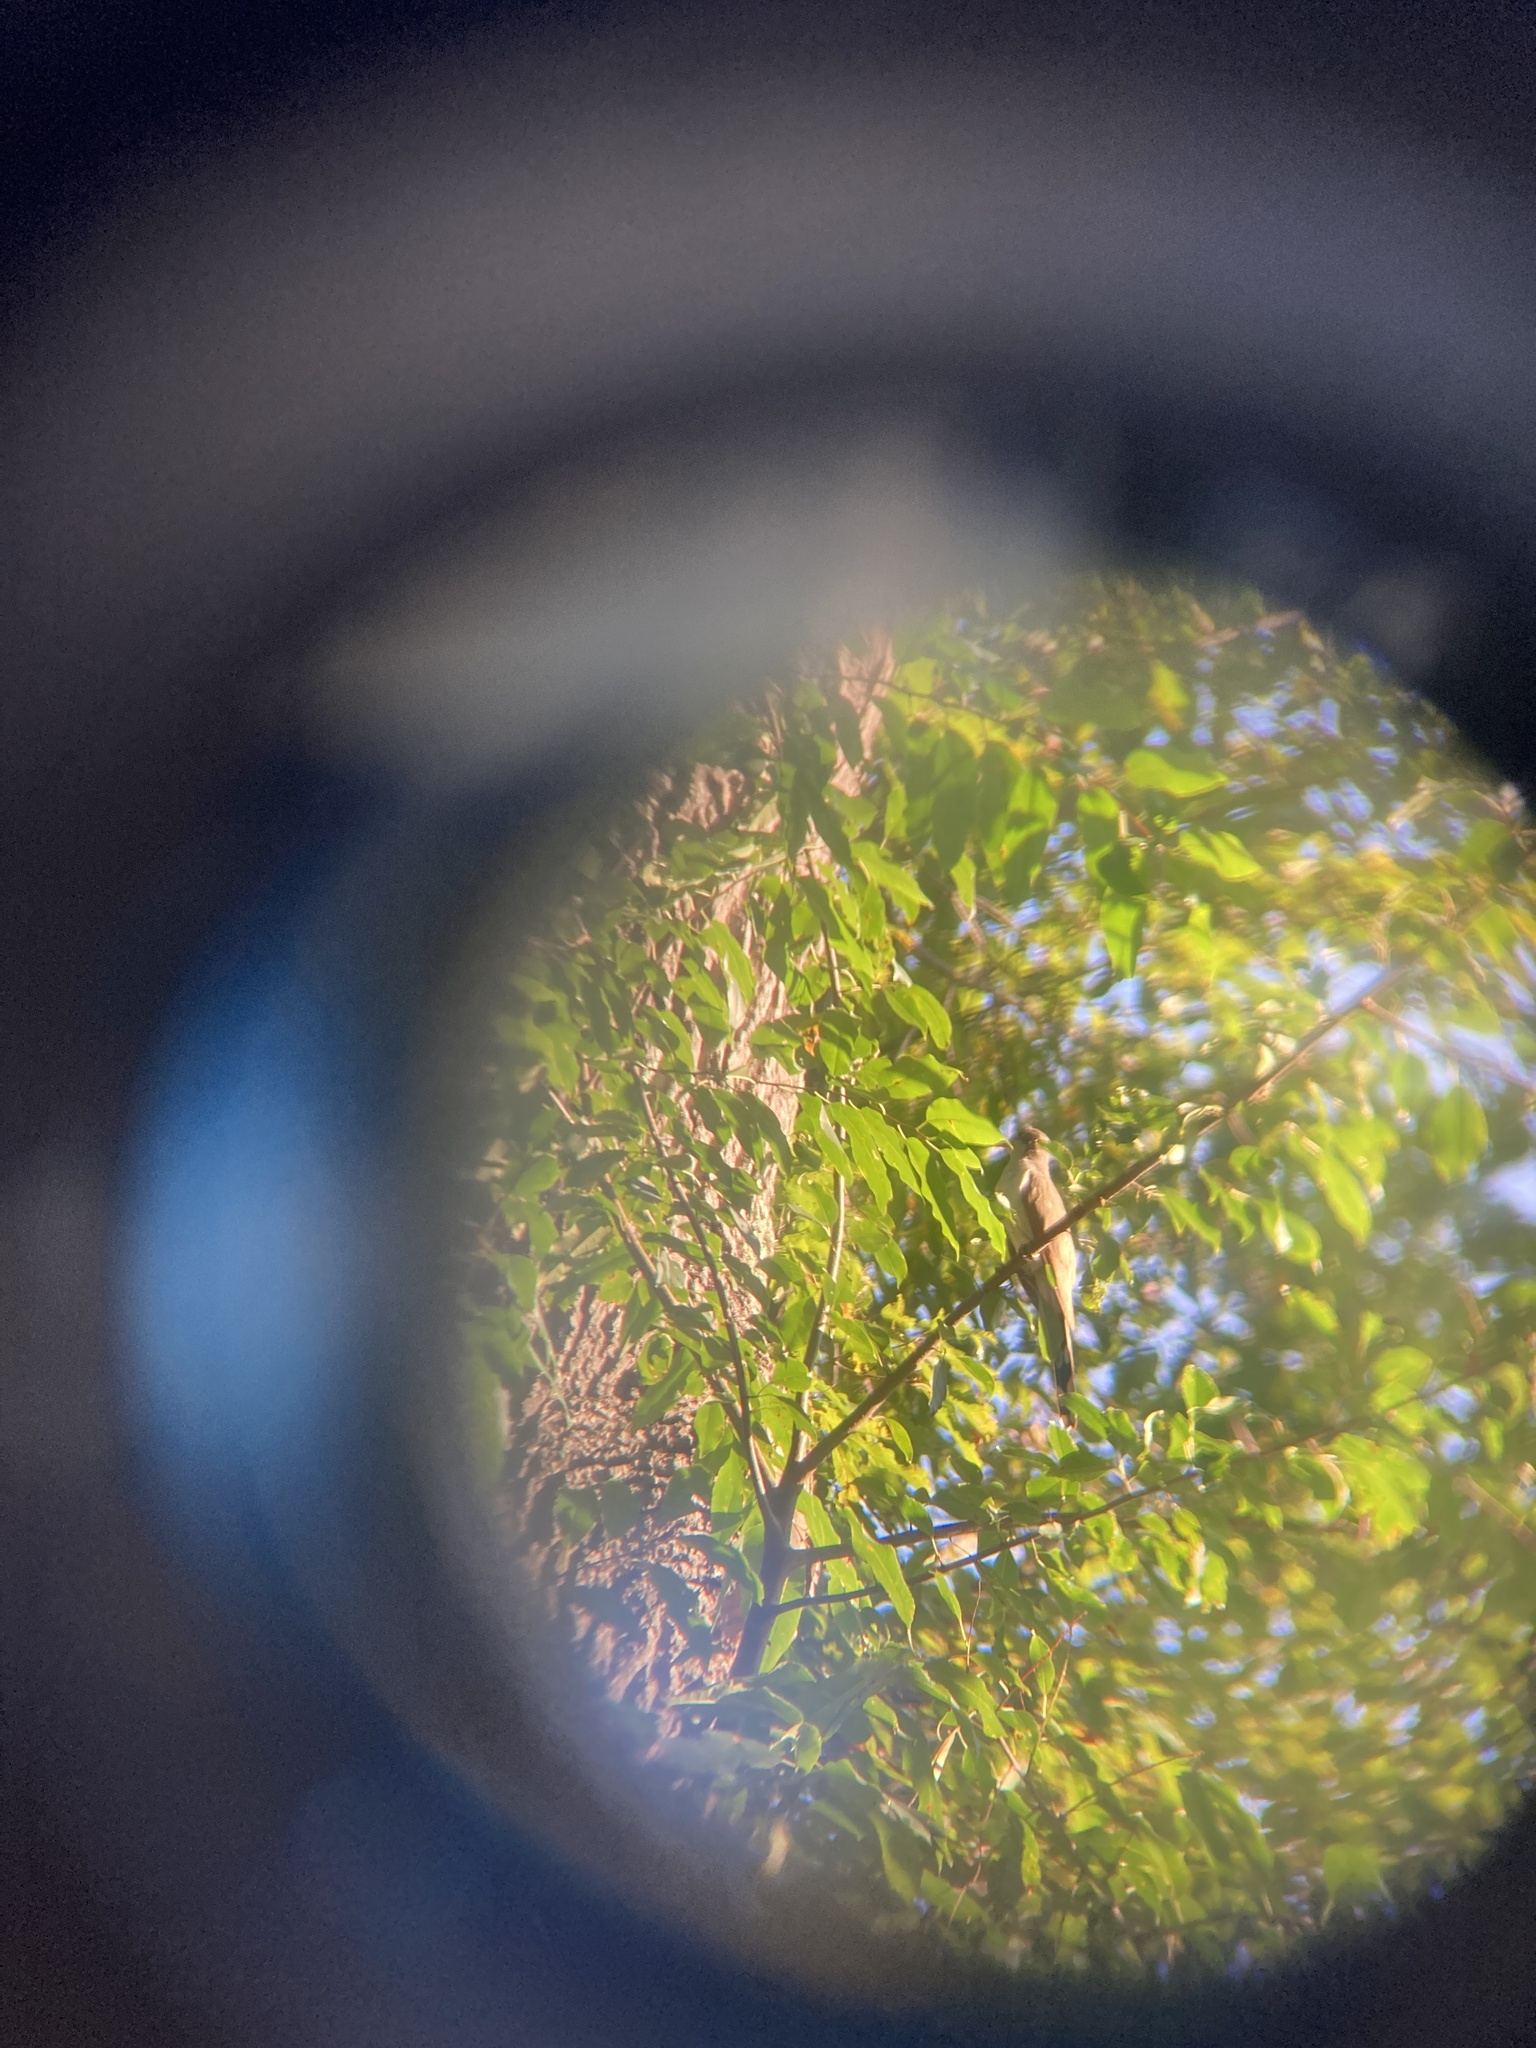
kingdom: Animalia
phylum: Chordata
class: Aves
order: Cuculiformes
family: Cuculidae
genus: Coccyzus
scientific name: Coccyzus americanus
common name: Yellow-billed cuckoo
